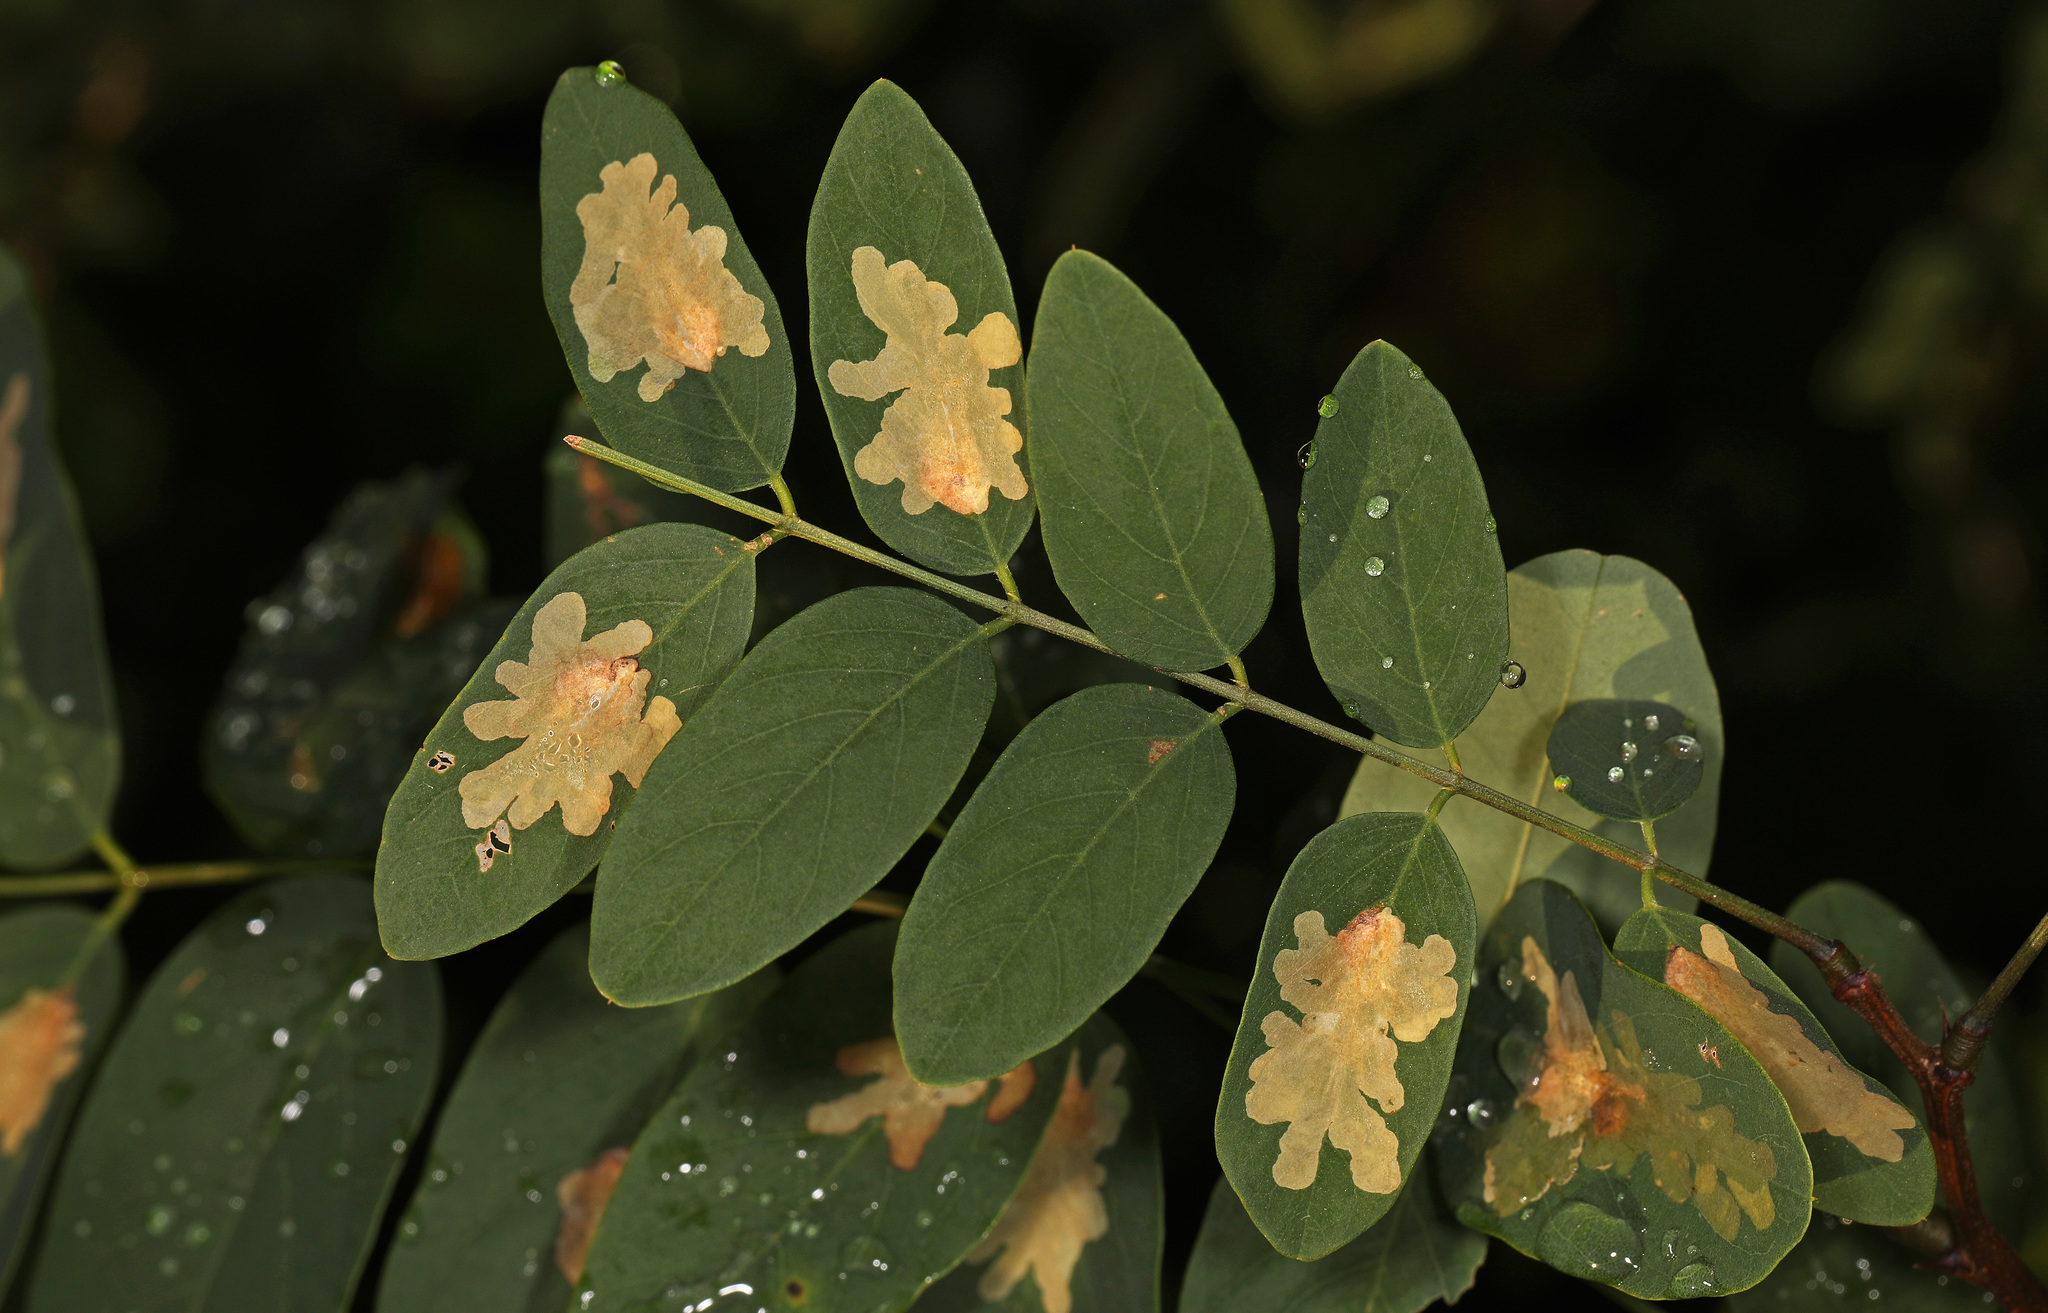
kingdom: Animalia
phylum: Arthropoda
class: Insecta
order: Lepidoptera
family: Gracillariidae
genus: Parectopa
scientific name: Parectopa robiniella
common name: Locust digitate leafminer
